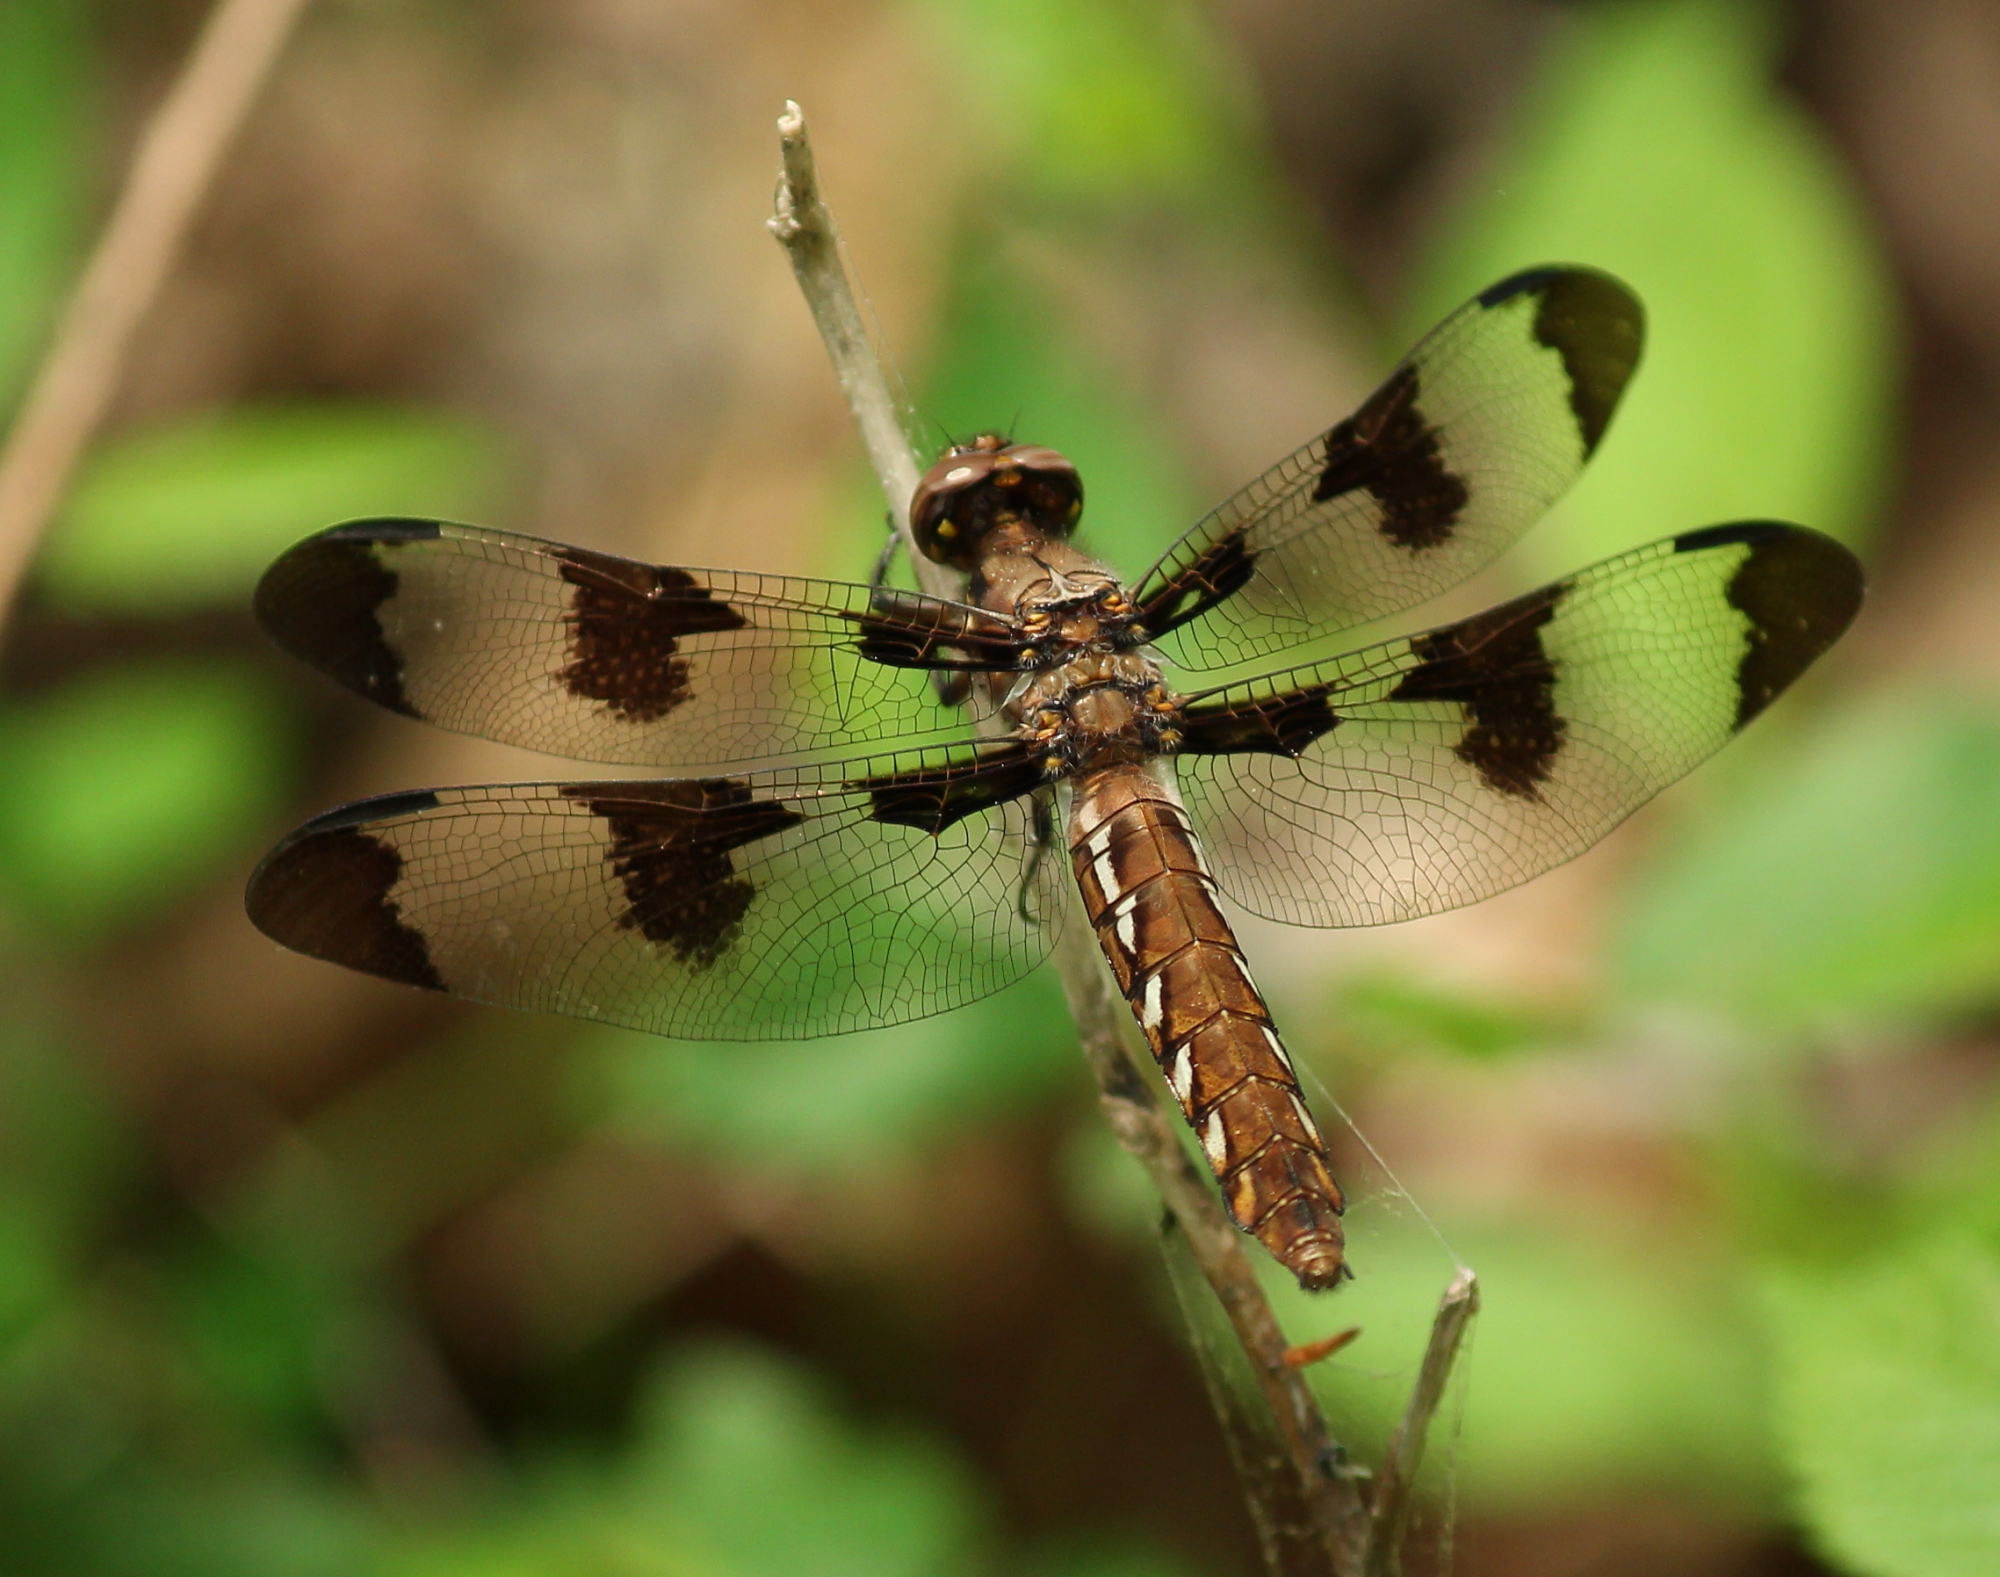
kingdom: Animalia
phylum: Arthropoda
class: Insecta
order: Odonata
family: Libellulidae
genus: Plathemis
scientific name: Plathemis lydia
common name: Common whitetail
